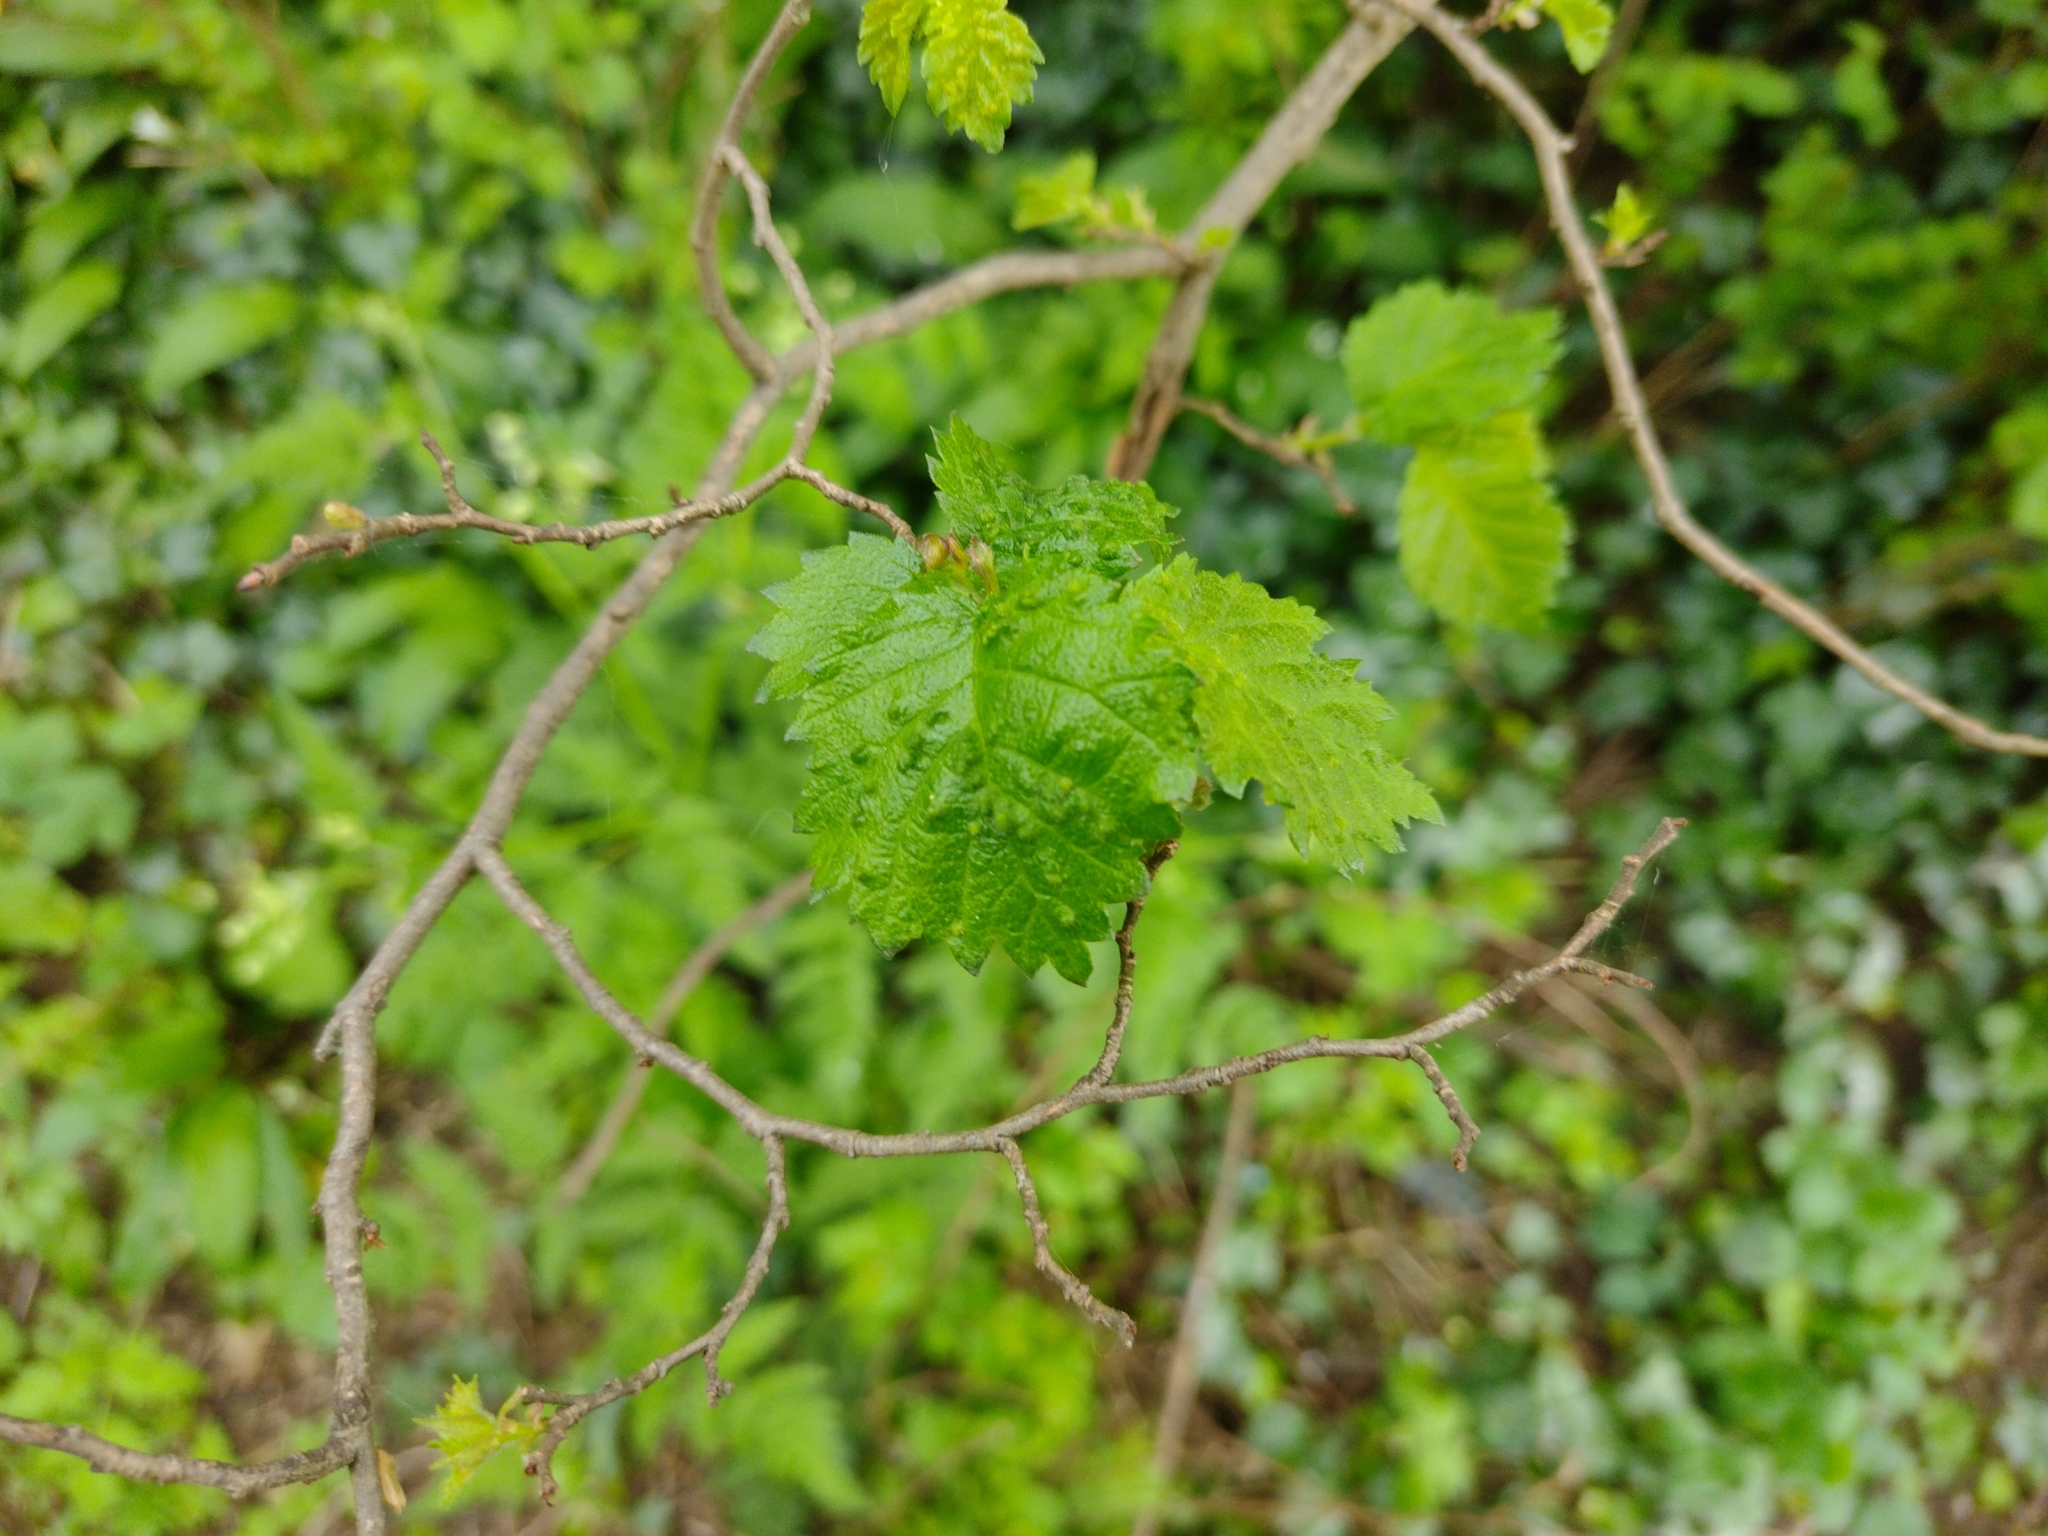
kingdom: Animalia
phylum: Arthropoda
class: Arachnida
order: Trombidiformes
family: Eriophyidae
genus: Aceria
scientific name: Aceria brevipunctata
